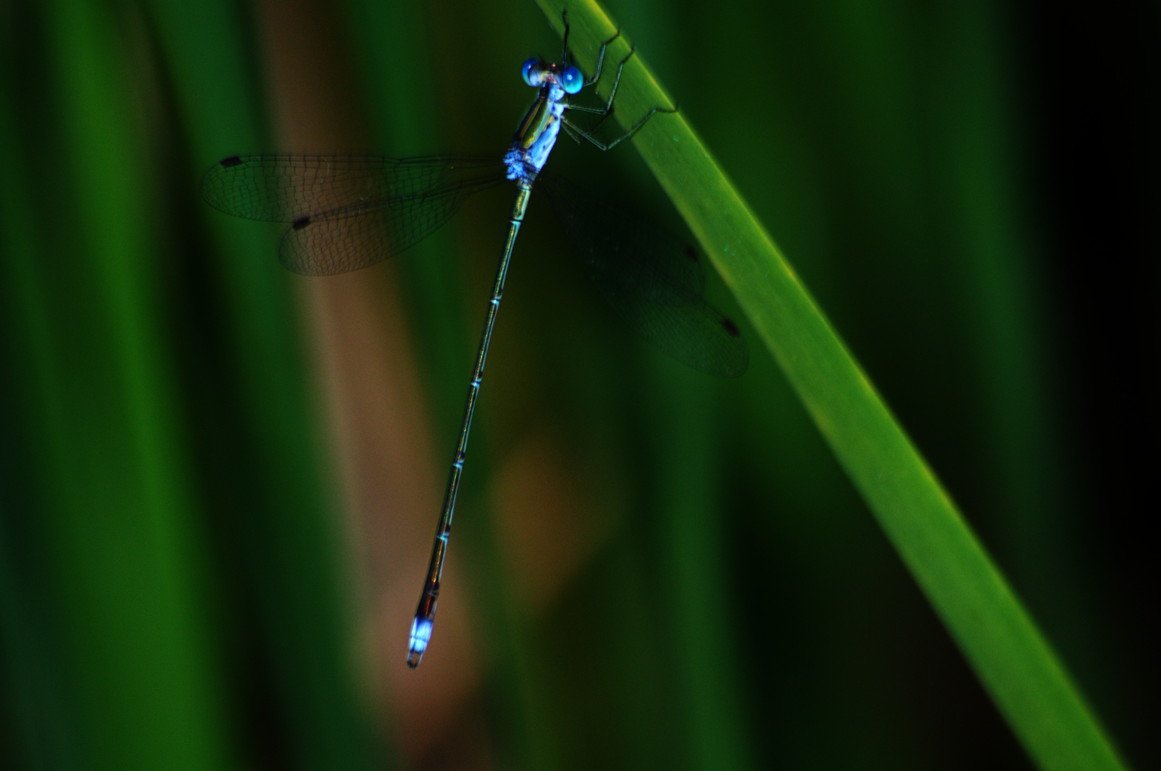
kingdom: Animalia
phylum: Arthropoda
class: Insecta
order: Odonata
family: Lestidae
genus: Lestes
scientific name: Lestes elatus
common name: Emerald spreadwing
